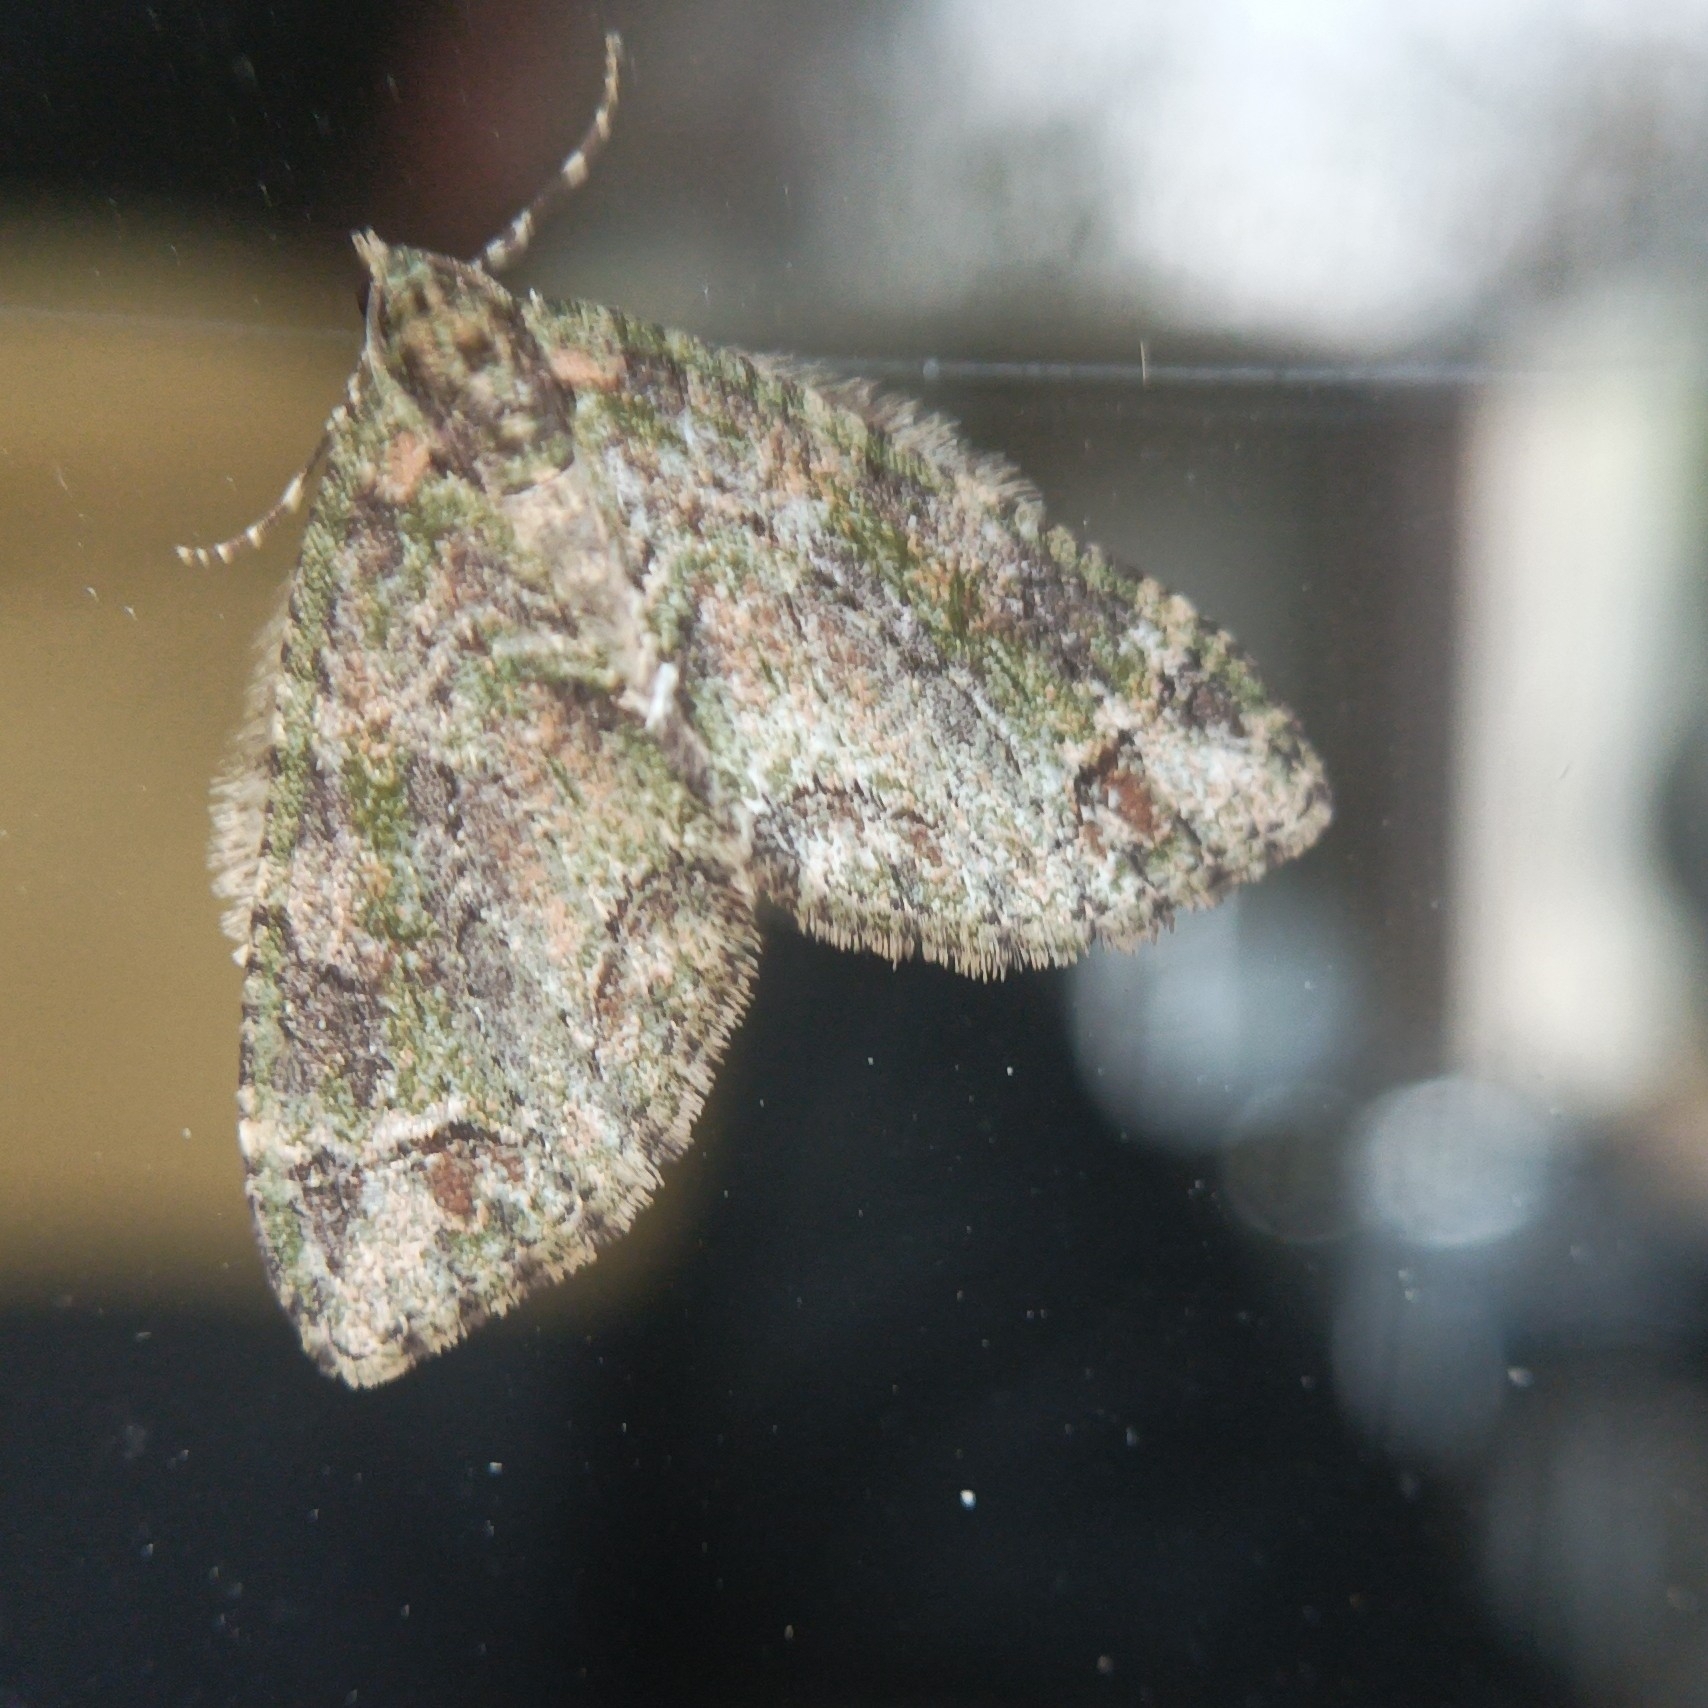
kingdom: Animalia
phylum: Arthropoda
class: Insecta
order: Lepidoptera
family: Geometridae
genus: Trichopterigia
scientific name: Trichopterigia harutai
